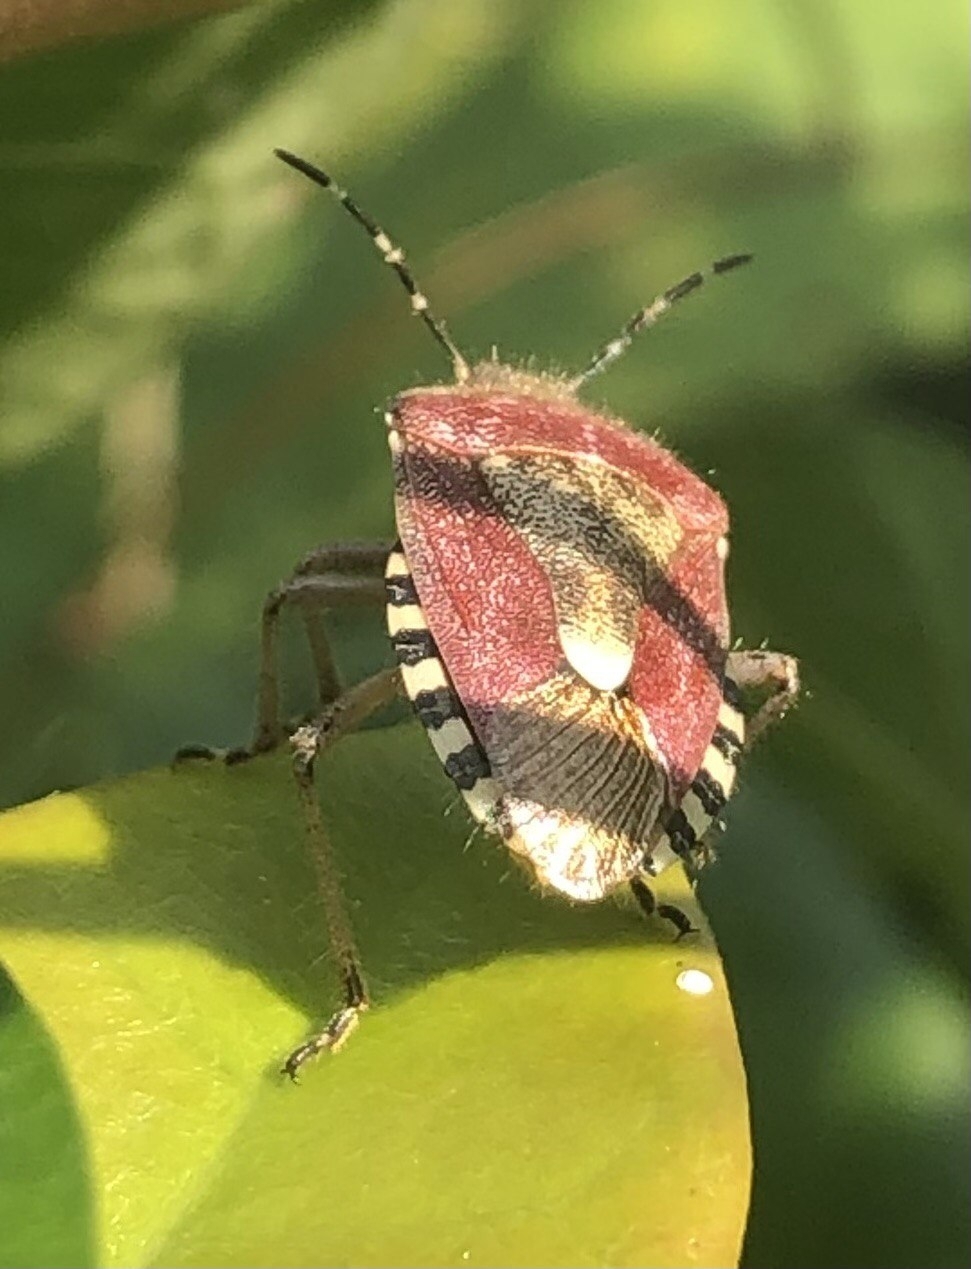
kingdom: Animalia
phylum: Arthropoda
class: Insecta
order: Hemiptera
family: Pentatomidae
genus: Dolycoris
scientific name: Dolycoris baccarum
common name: Sloe bug
